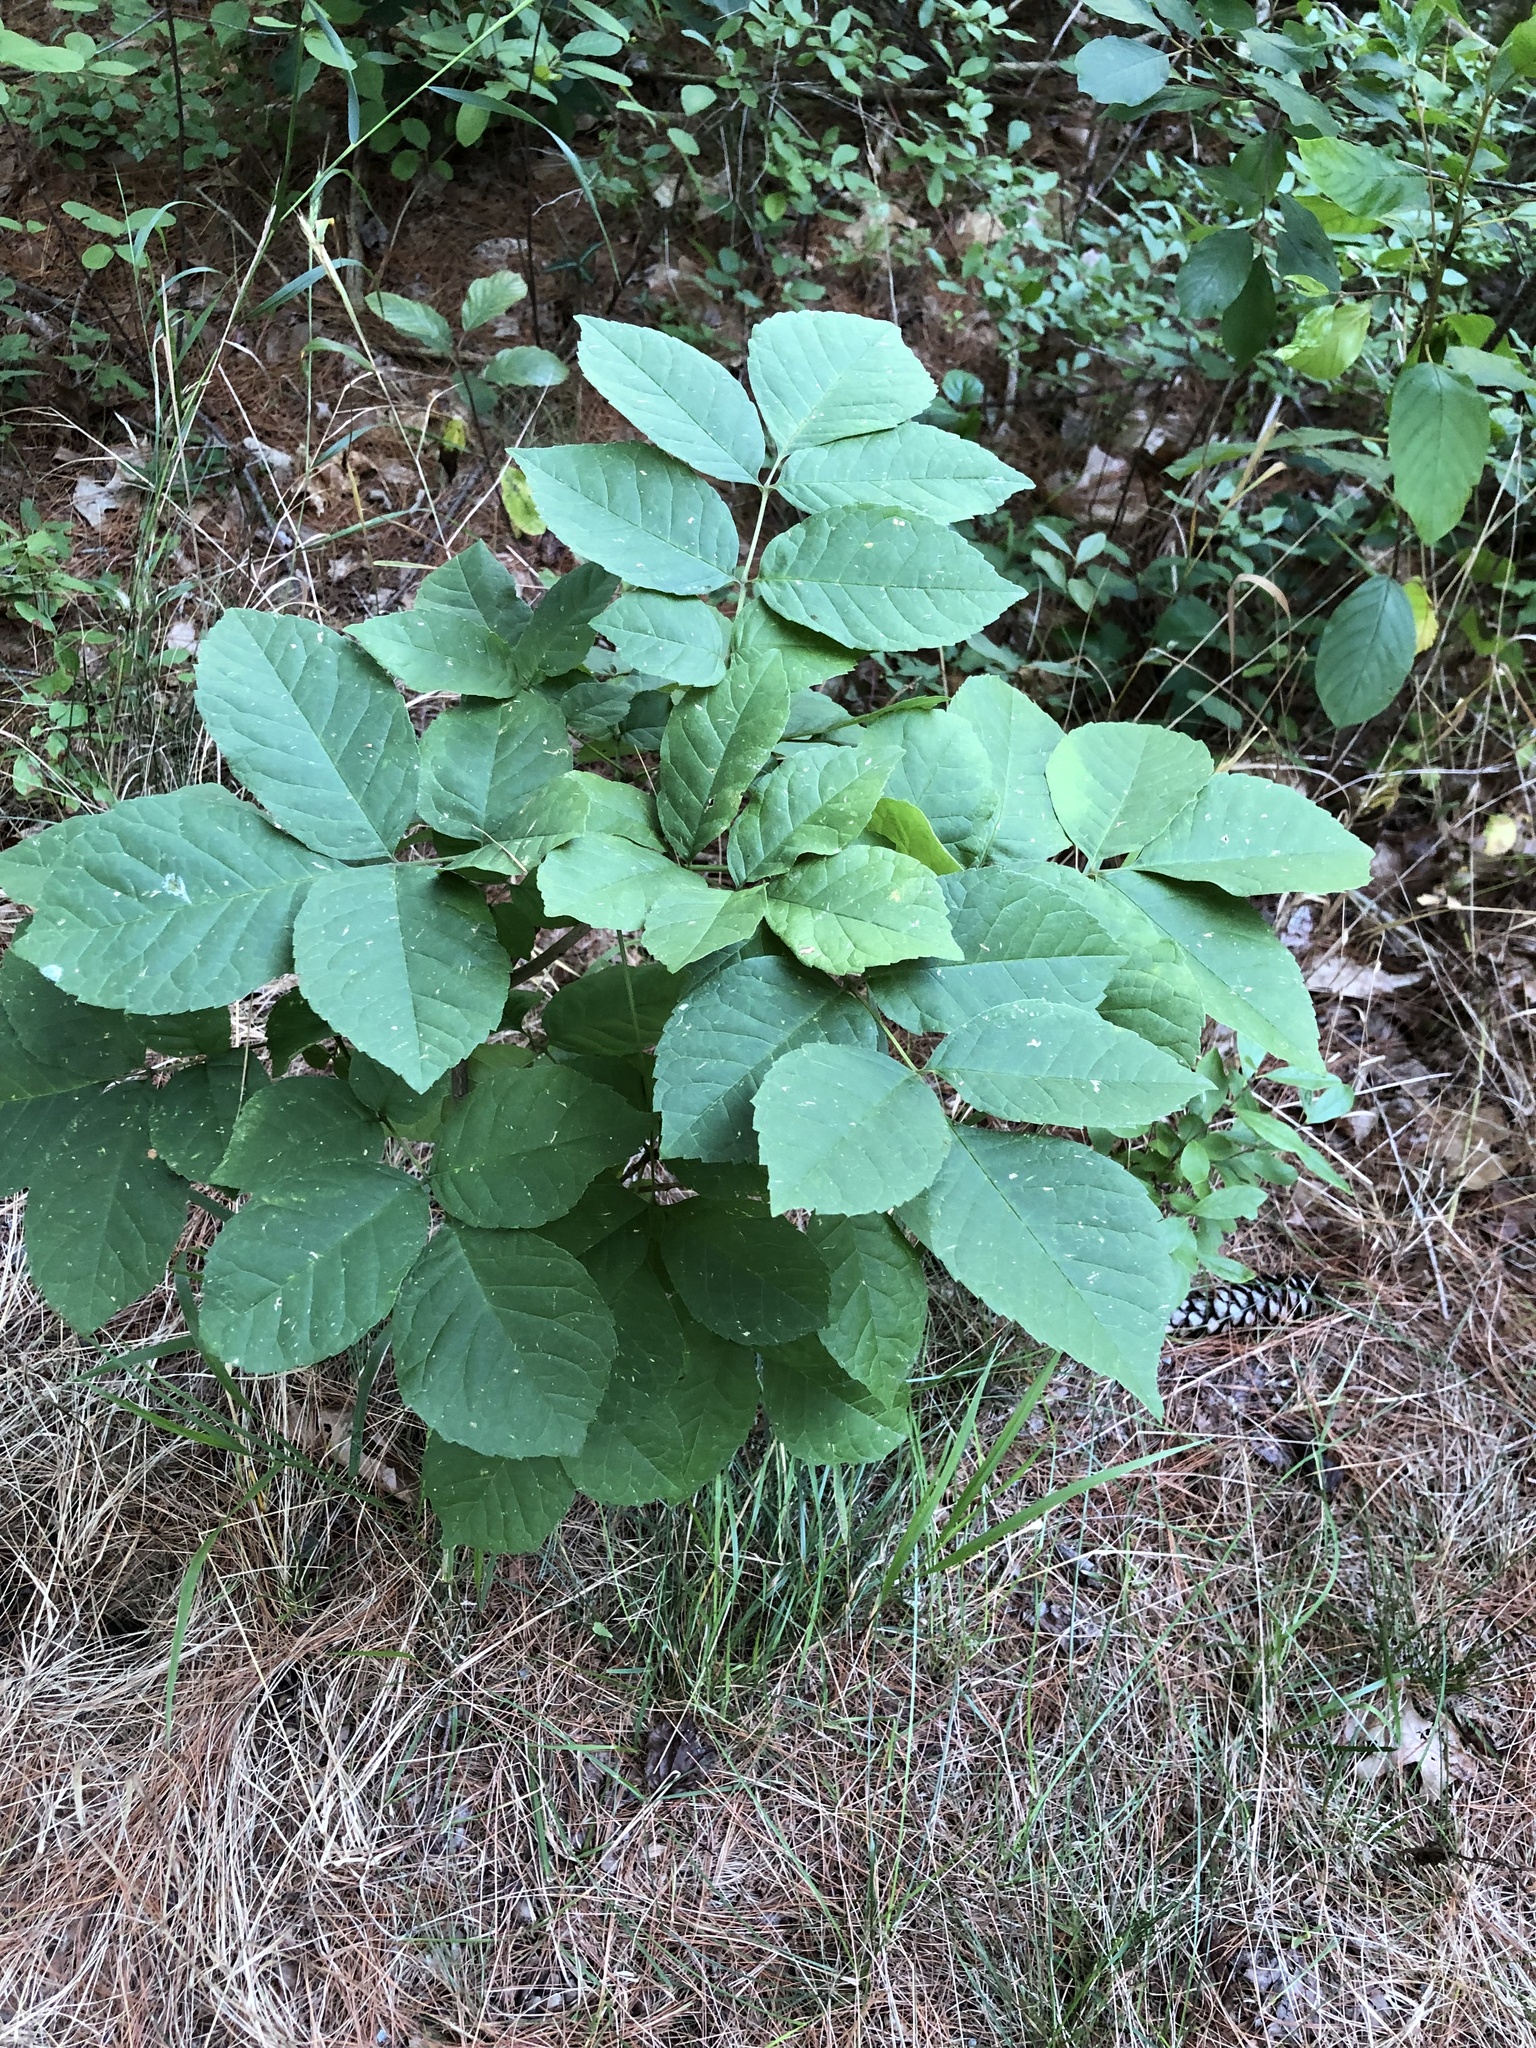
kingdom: Plantae
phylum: Tracheophyta
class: Magnoliopsida
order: Lamiales
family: Oleaceae
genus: Fraxinus
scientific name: Fraxinus americana
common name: White ash
